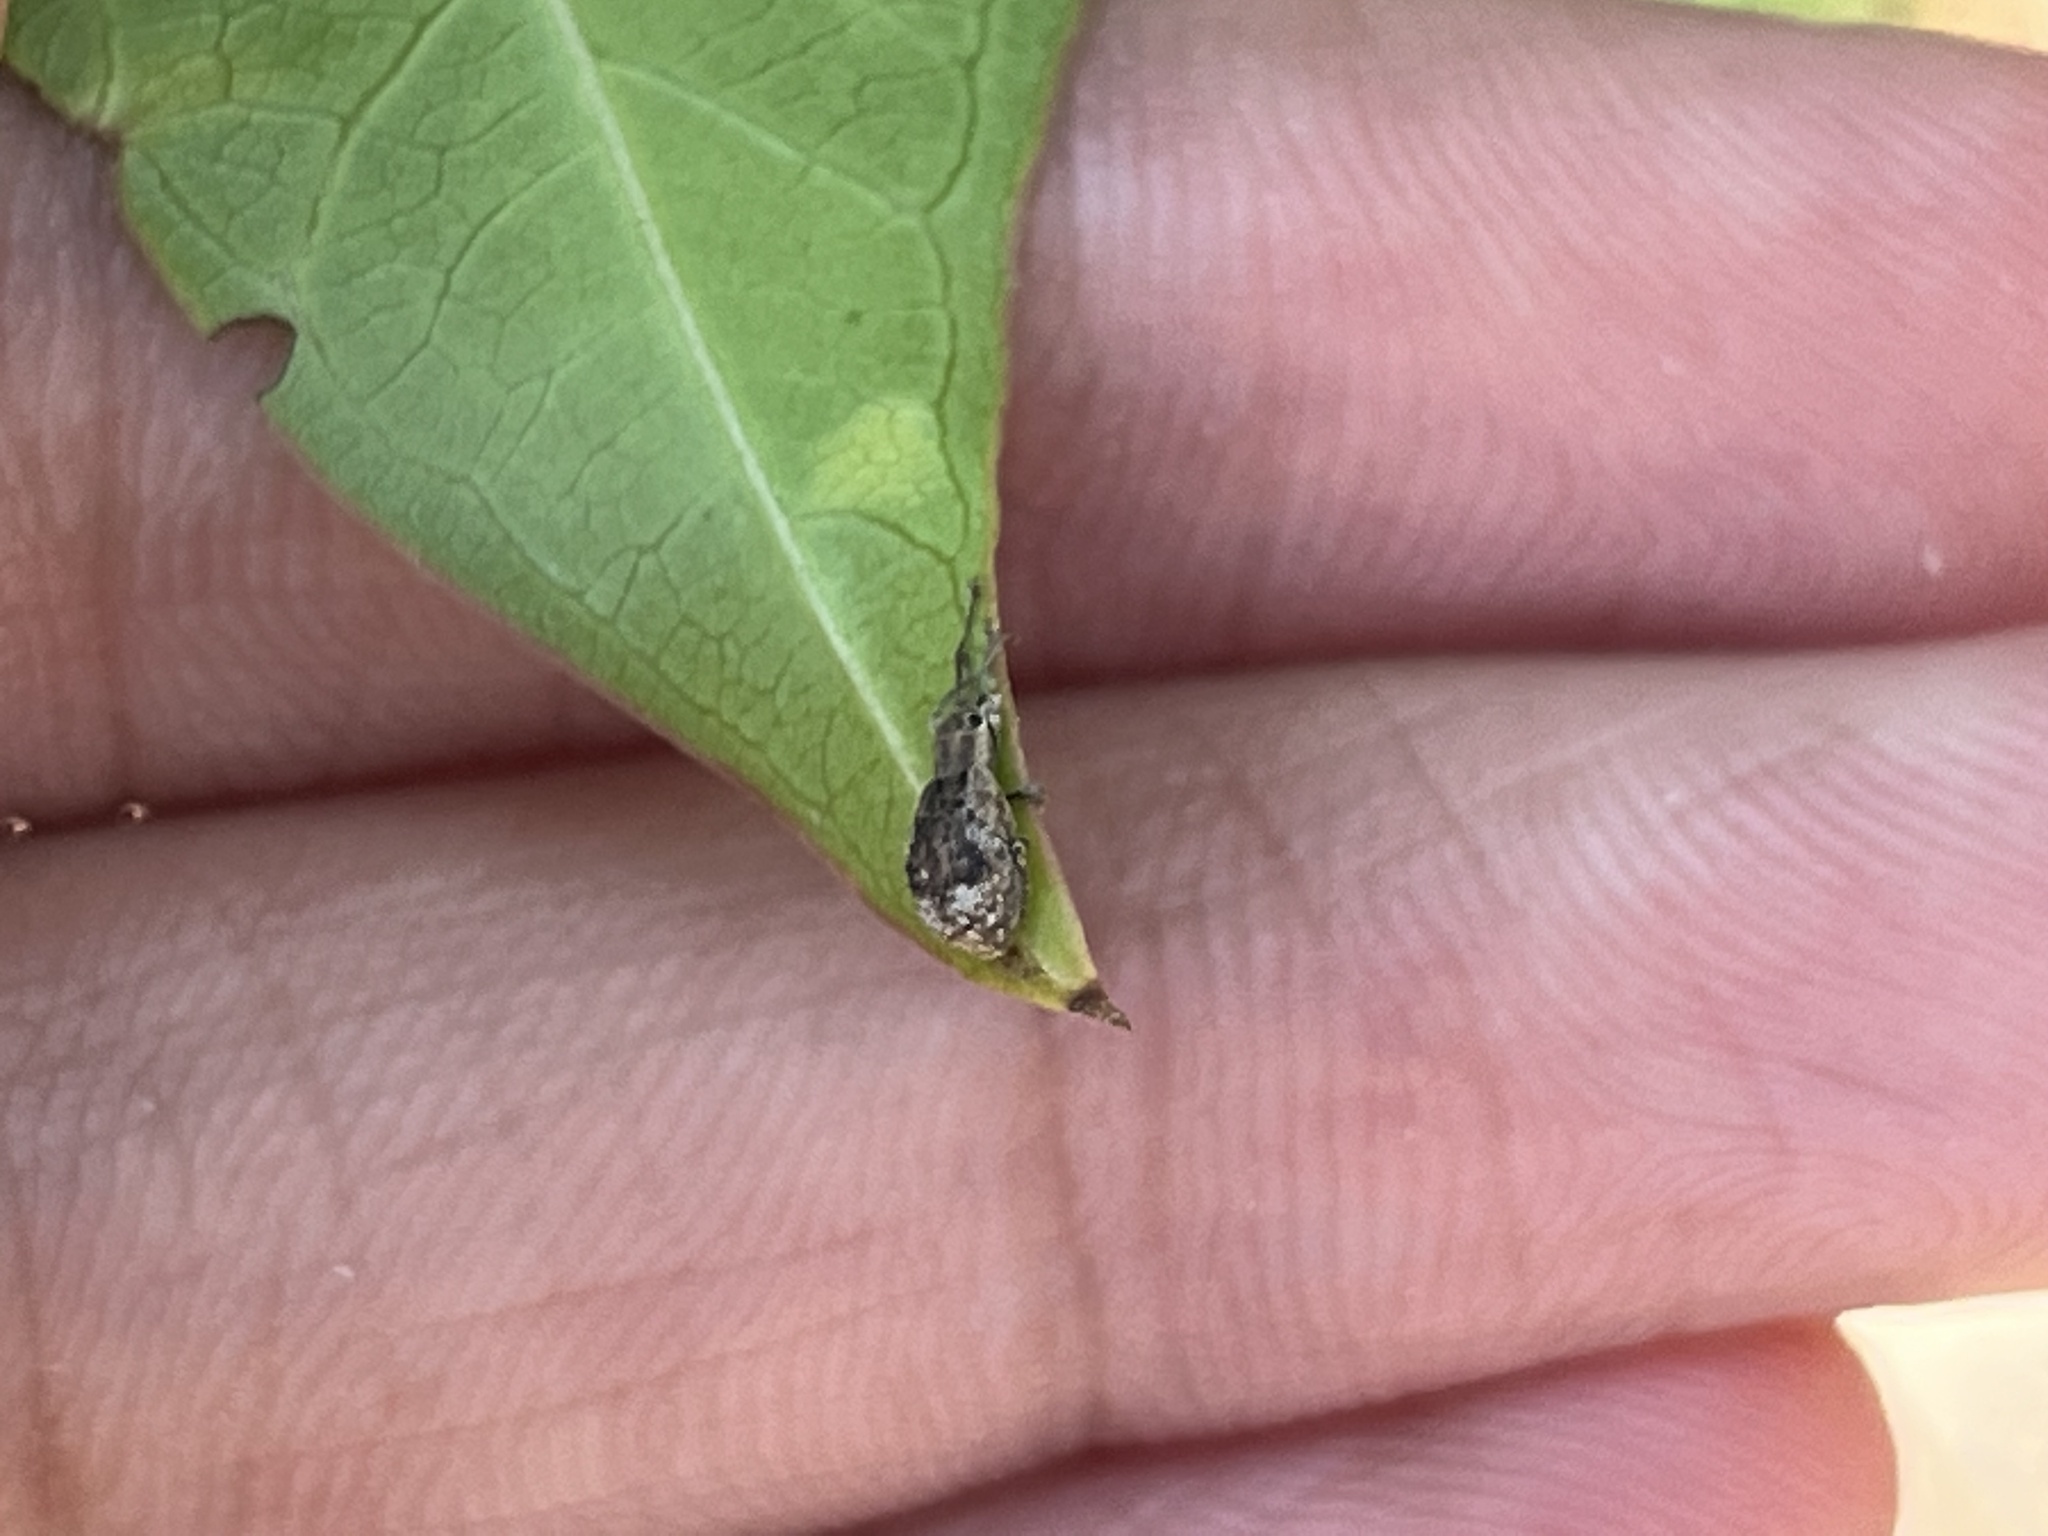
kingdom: Animalia
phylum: Arthropoda
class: Insecta
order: Coleoptera
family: Curculionidae
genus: Pseudoedophrys
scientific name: Pseudoedophrys hilleri
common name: Weevil
